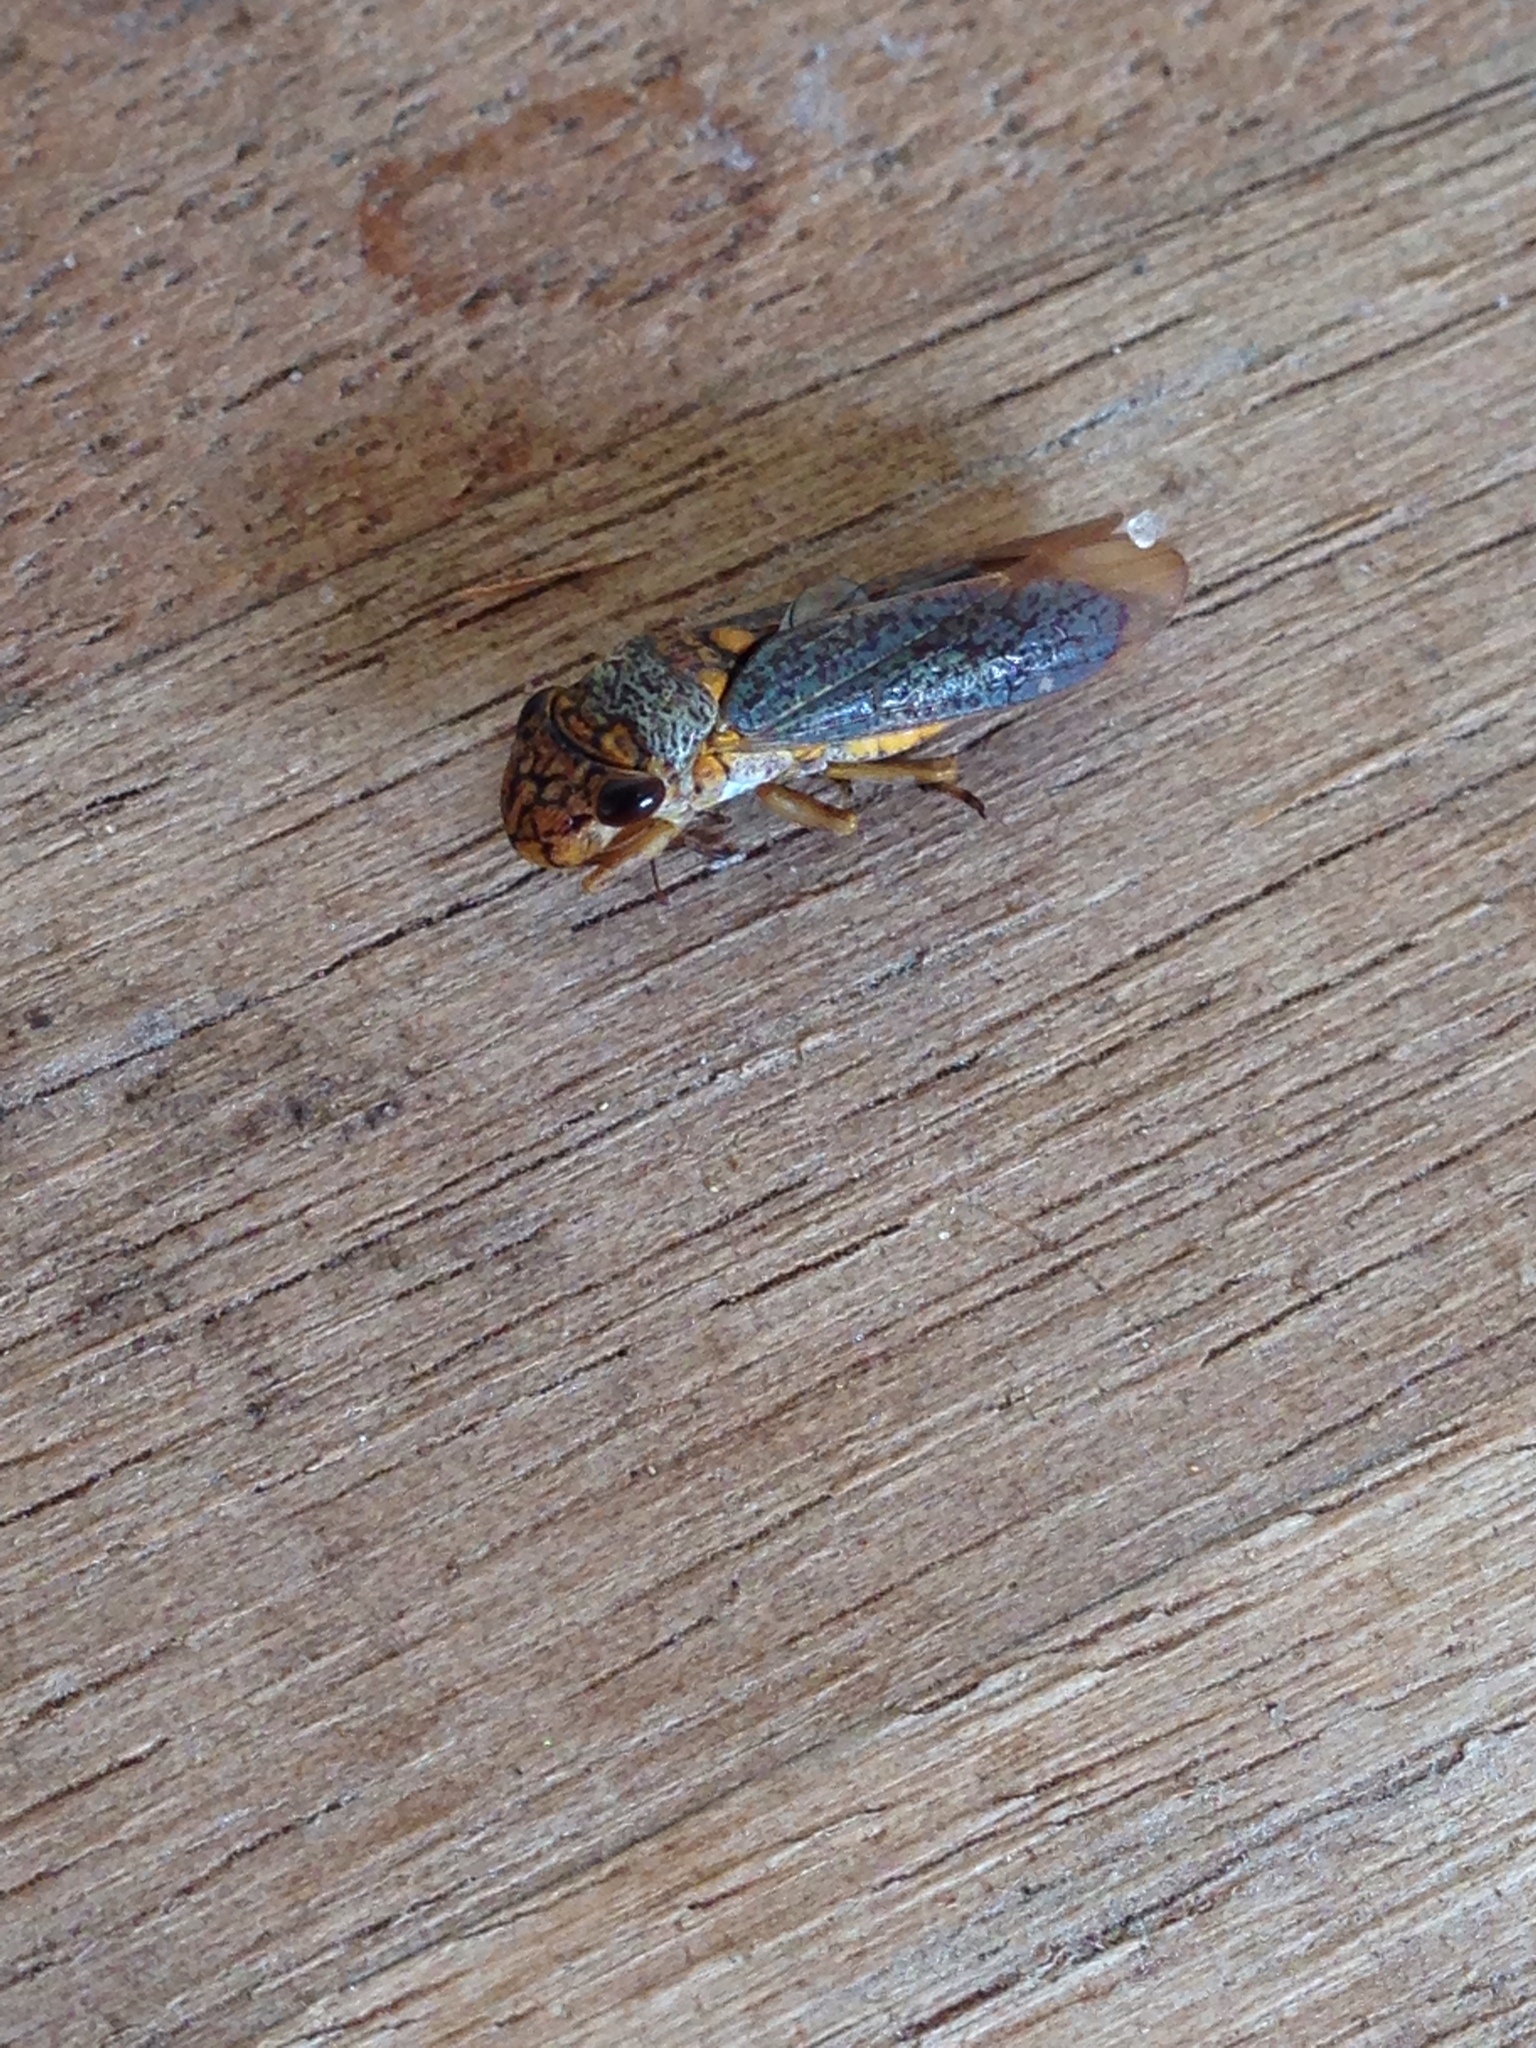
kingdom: Animalia
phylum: Arthropoda
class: Insecta
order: Hemiptera
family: Cicadellidae
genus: Oncometopia
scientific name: Oncometopia orbona
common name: Broad-headed sharpshooter
